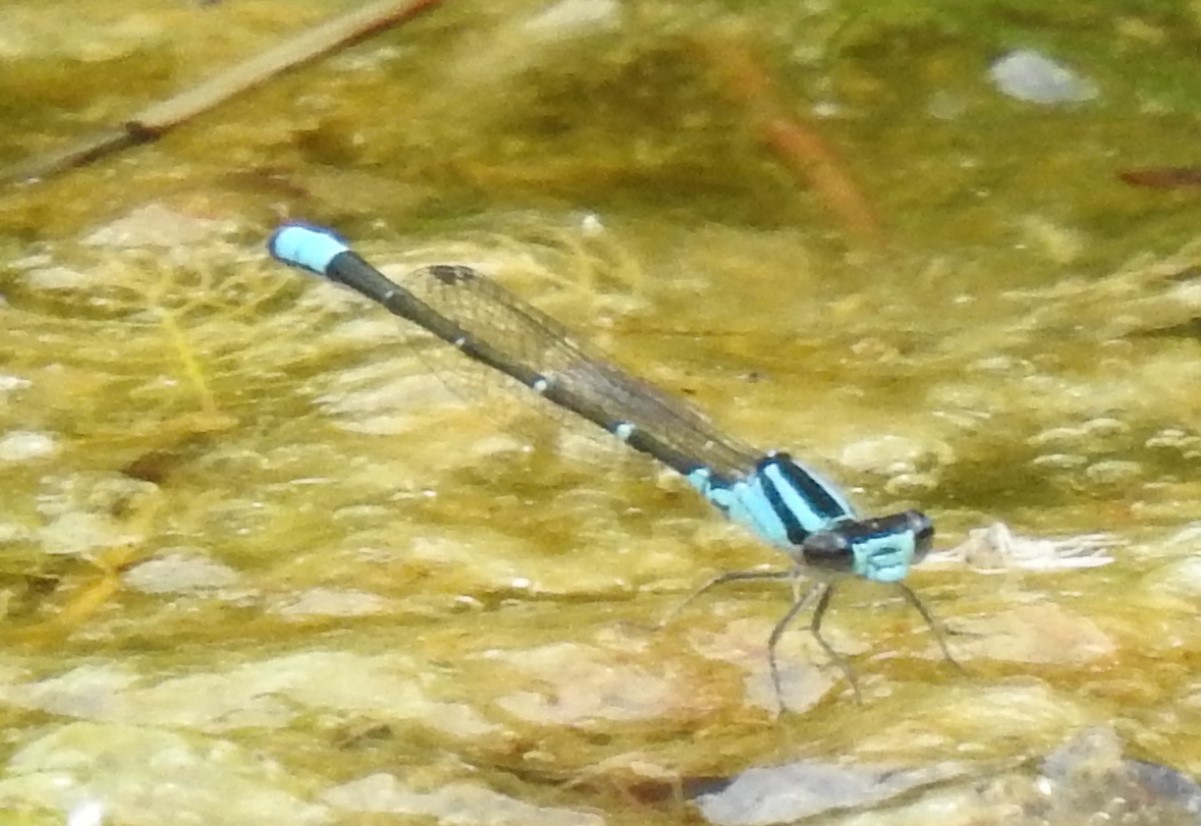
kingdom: Animalia
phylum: Arthropoda
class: Insecta
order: Odonata
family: Coenagrionidae
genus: Enallagma
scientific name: Enallagma geminatum
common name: Skimming bluet
